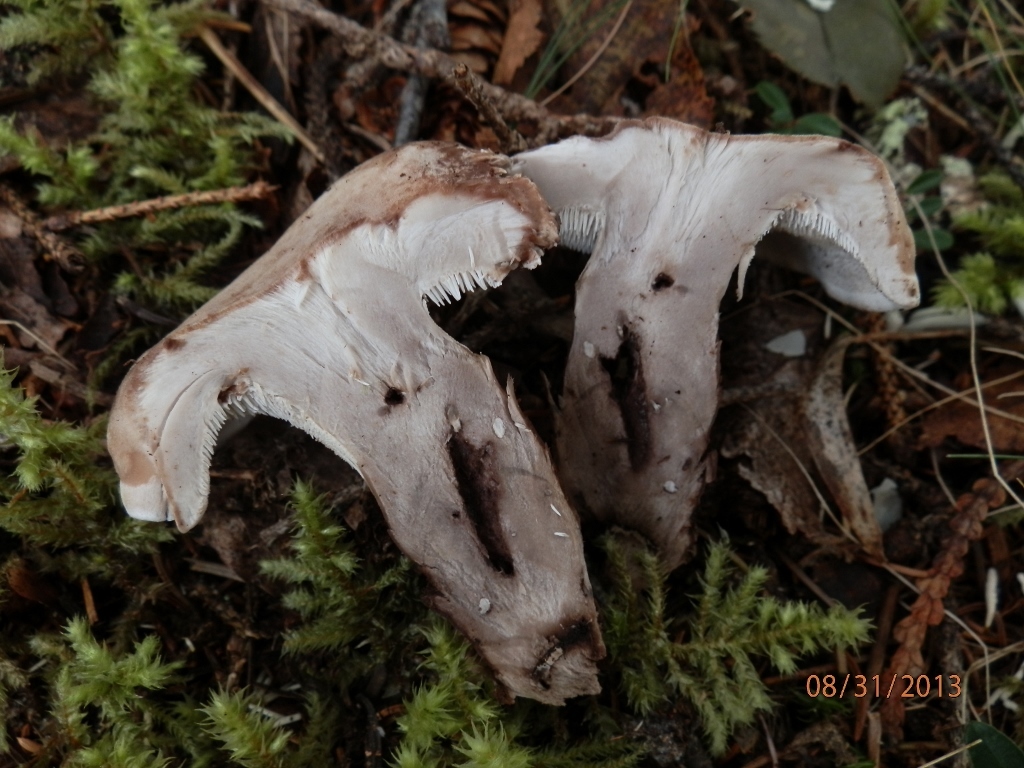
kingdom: Fungi
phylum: Basidiomycota
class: Agaricomycetes
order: Thelephorales
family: Thelephoraceae
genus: Phellodon
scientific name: Phellodon violascens
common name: Spruce tooth
